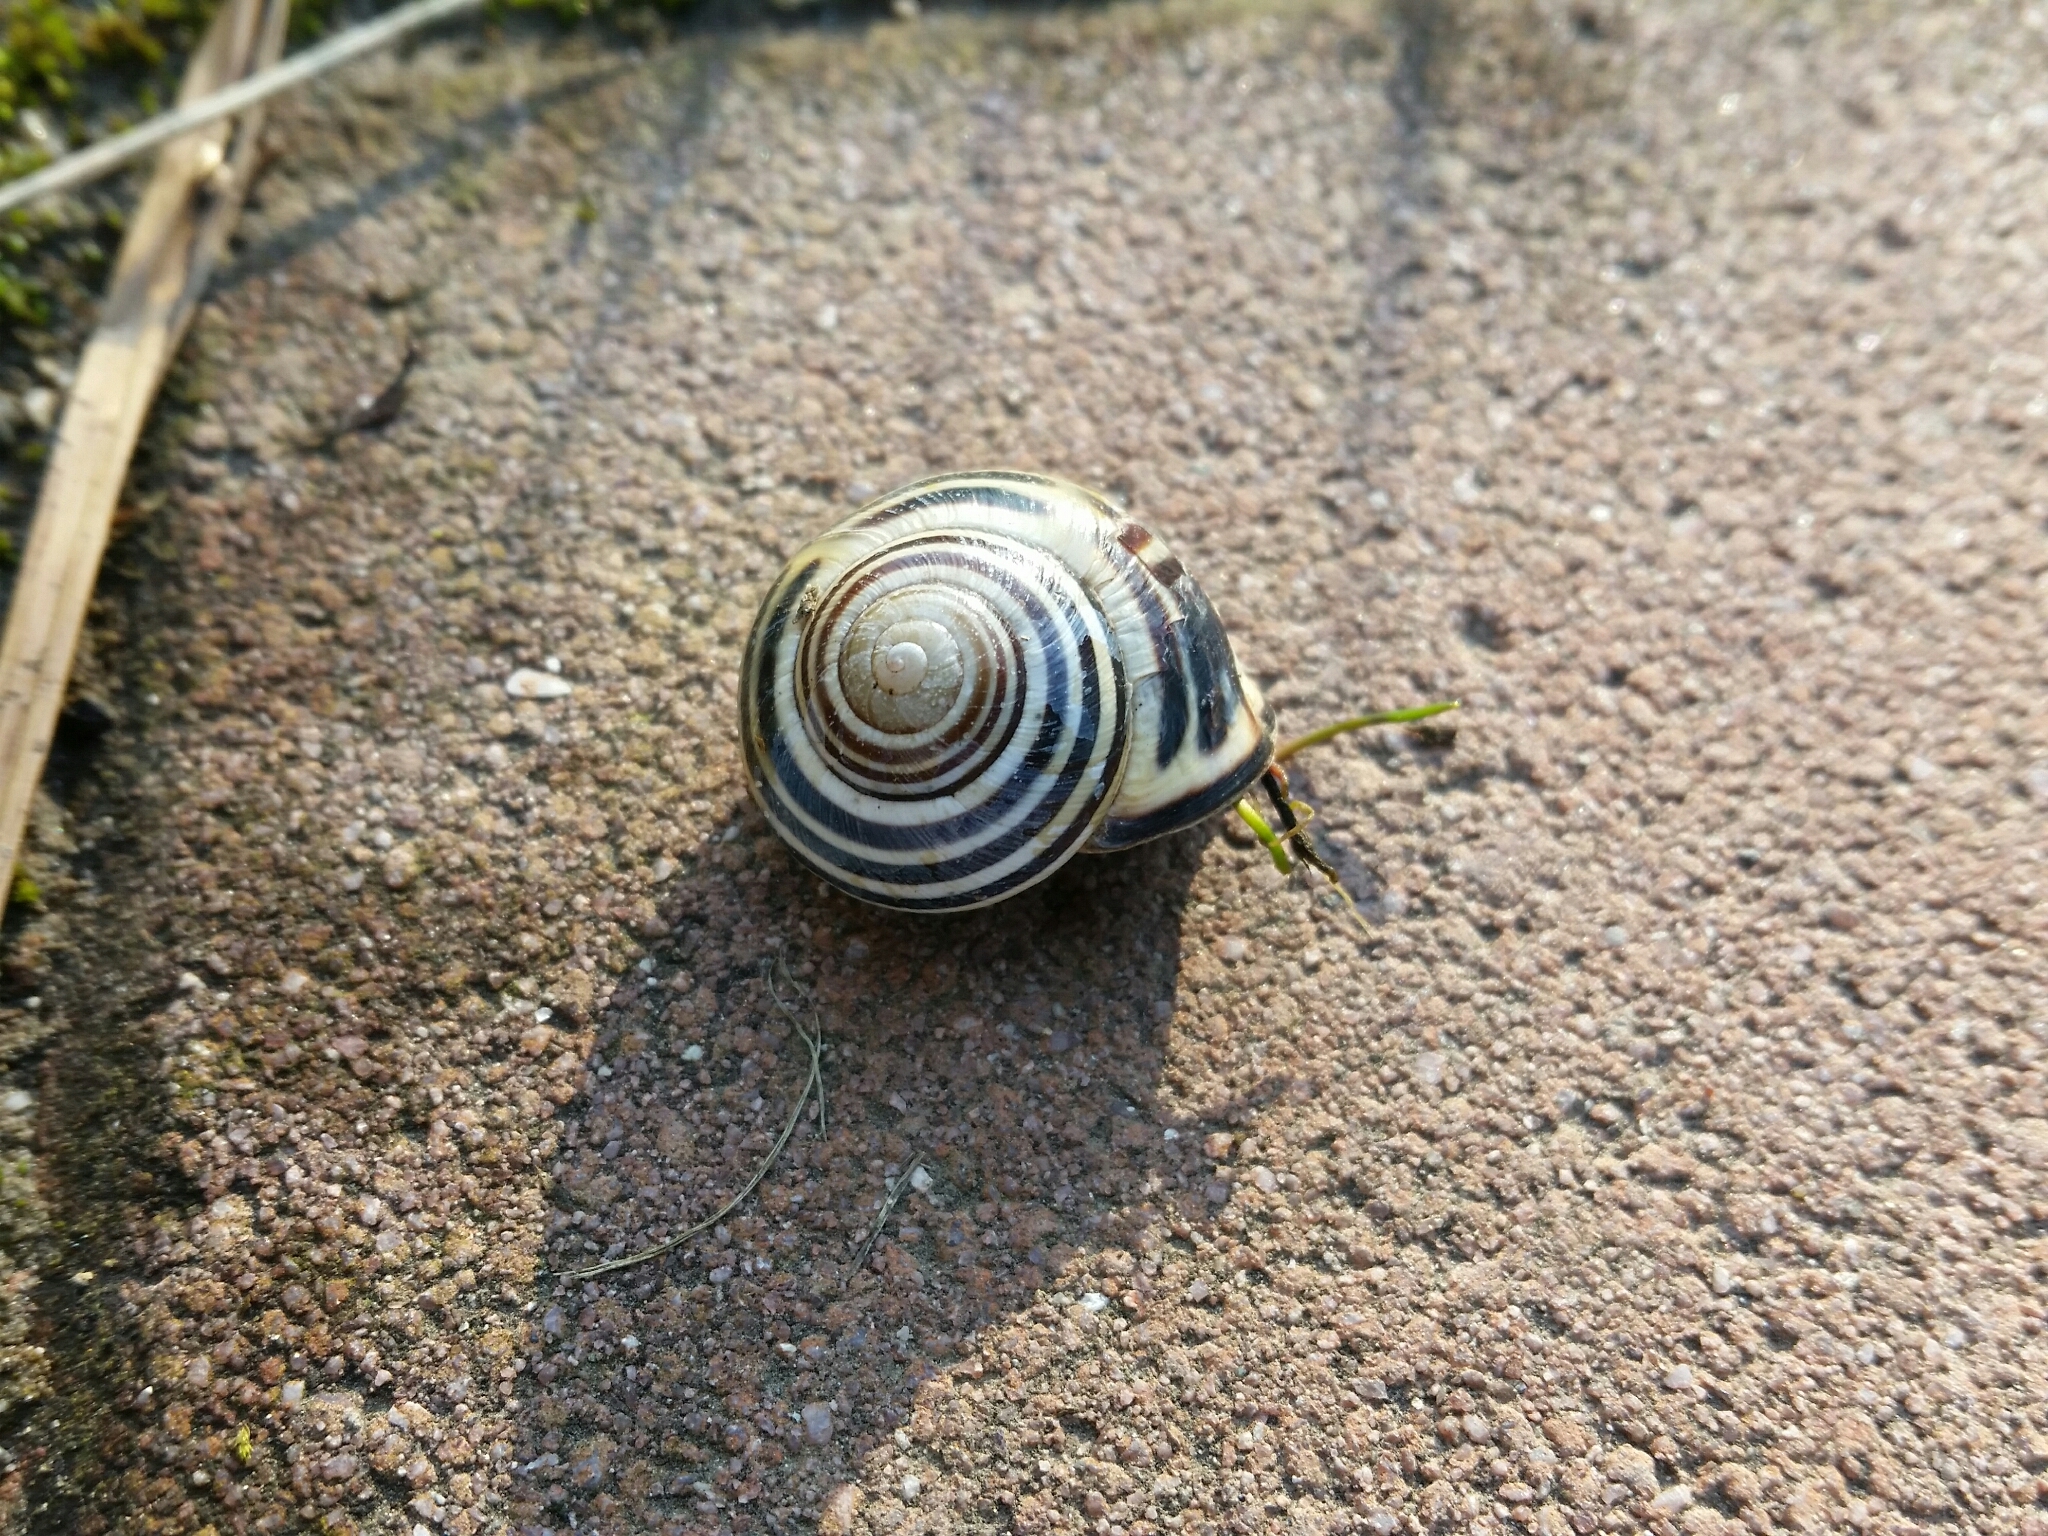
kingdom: Animalia
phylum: Mollusca
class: Gastropoda
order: Stylommatophora
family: Helicidae
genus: Cepaea
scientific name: Cepaea nemoralis
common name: Grovesnail
